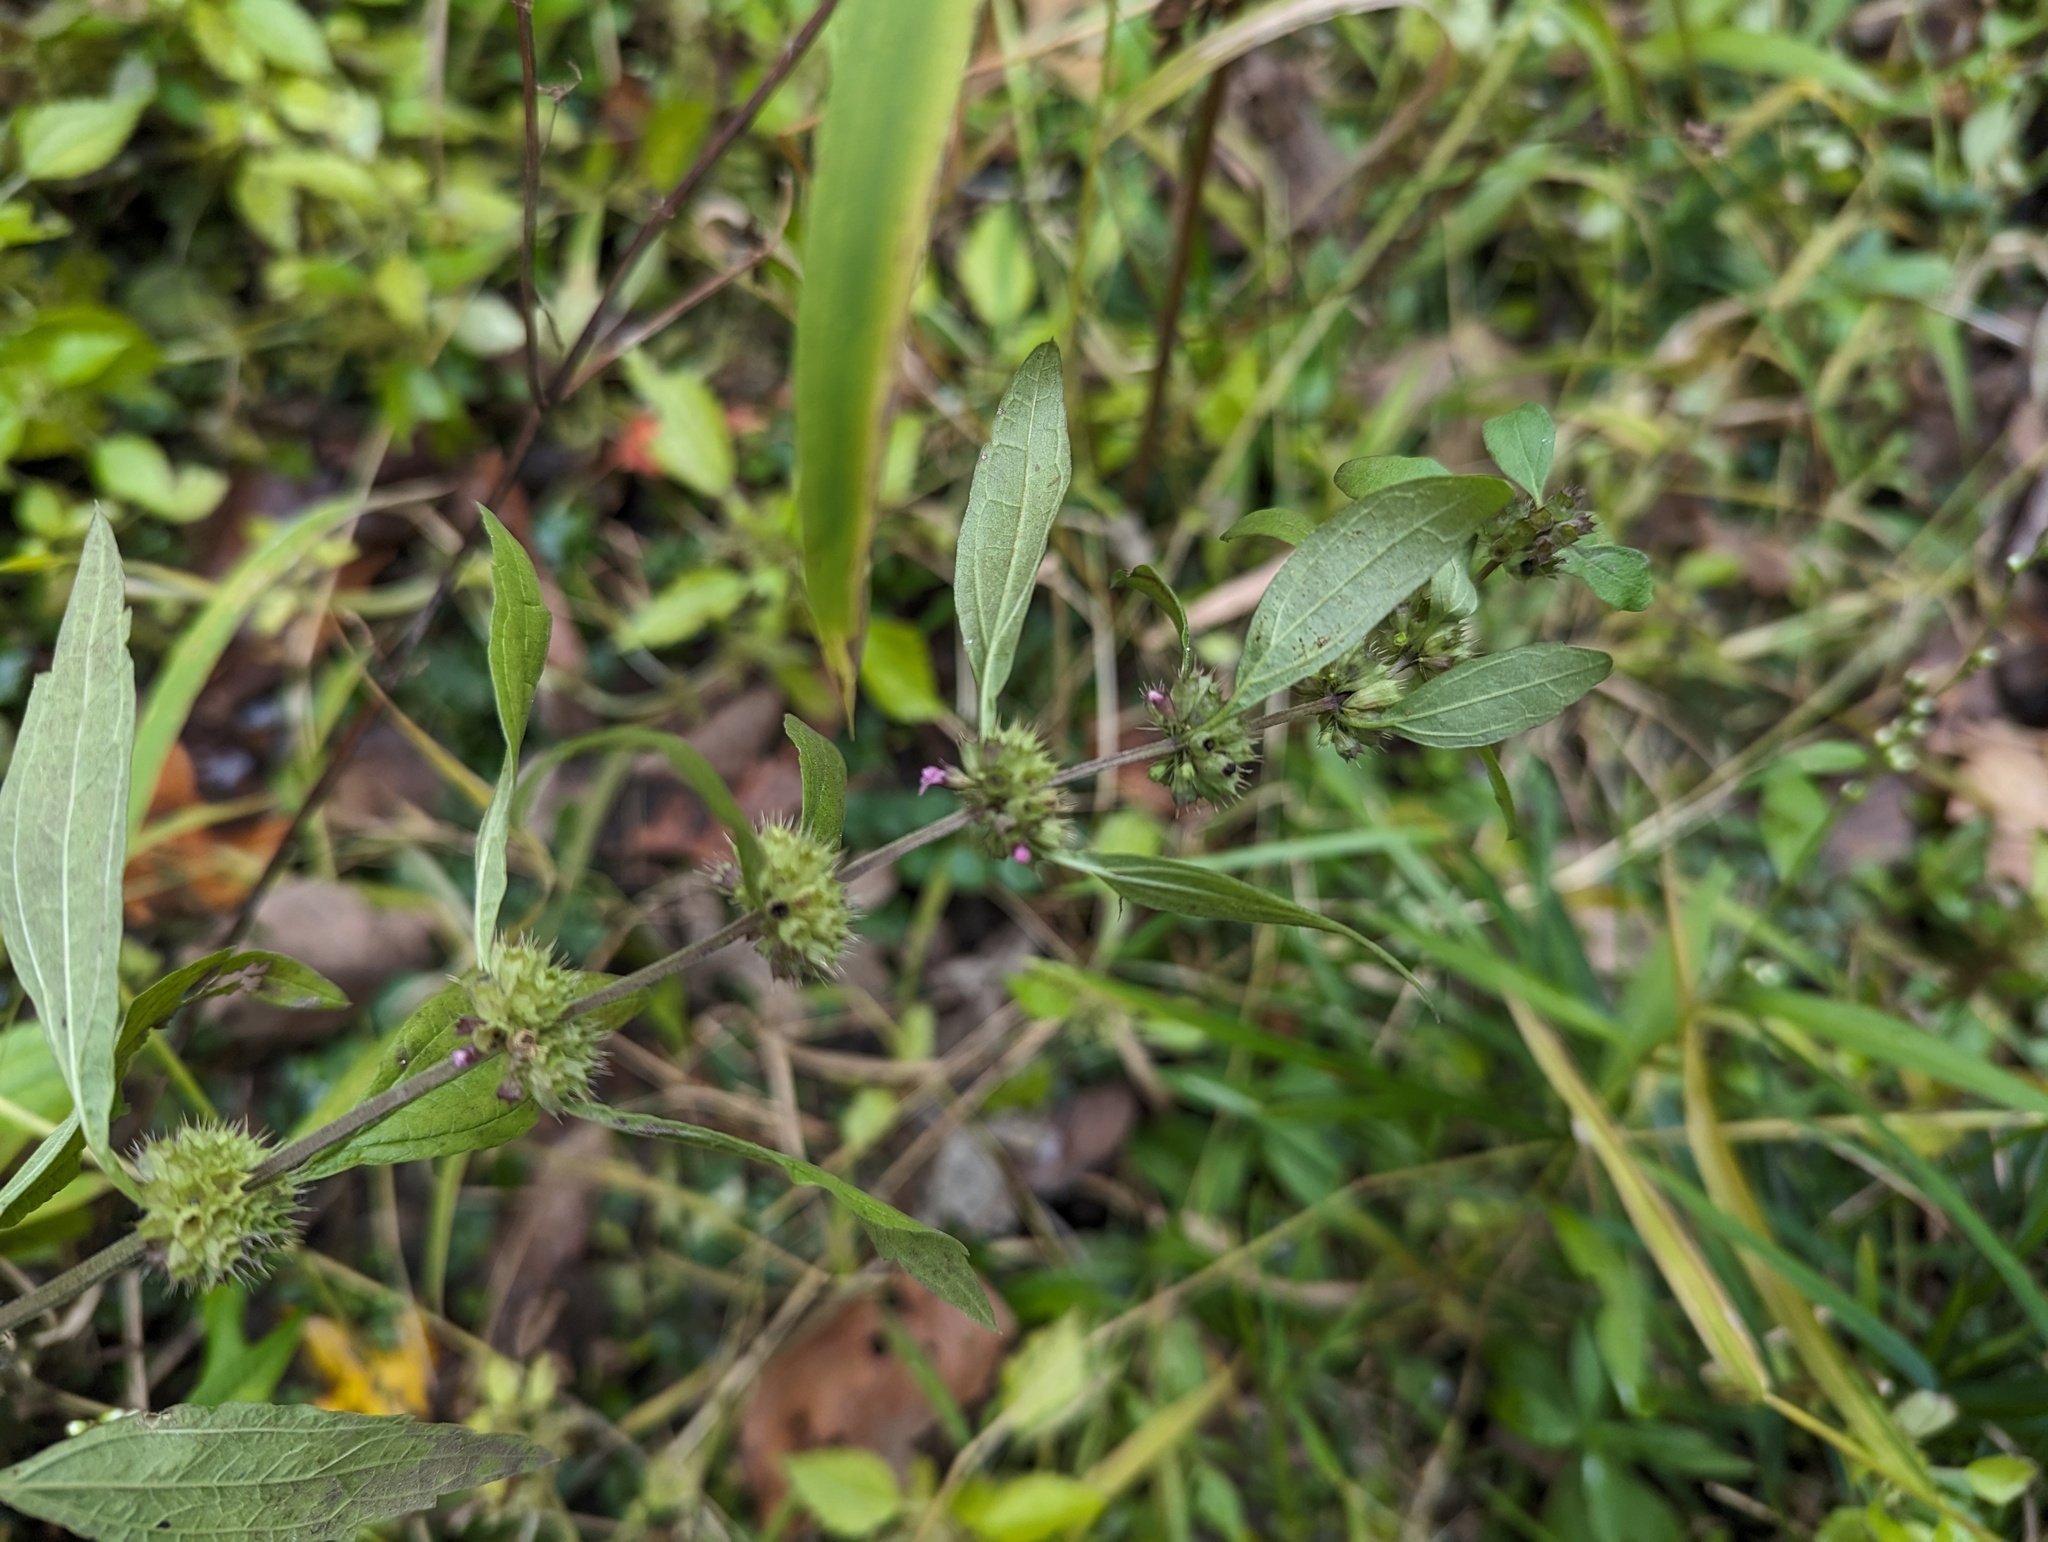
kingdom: Plantae
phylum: Tracheophyta
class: Magnoliopsida
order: Lamiales
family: Lamiaceae
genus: Chaiturus
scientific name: Chaiturus marrubiastrum
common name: Lion's tail
